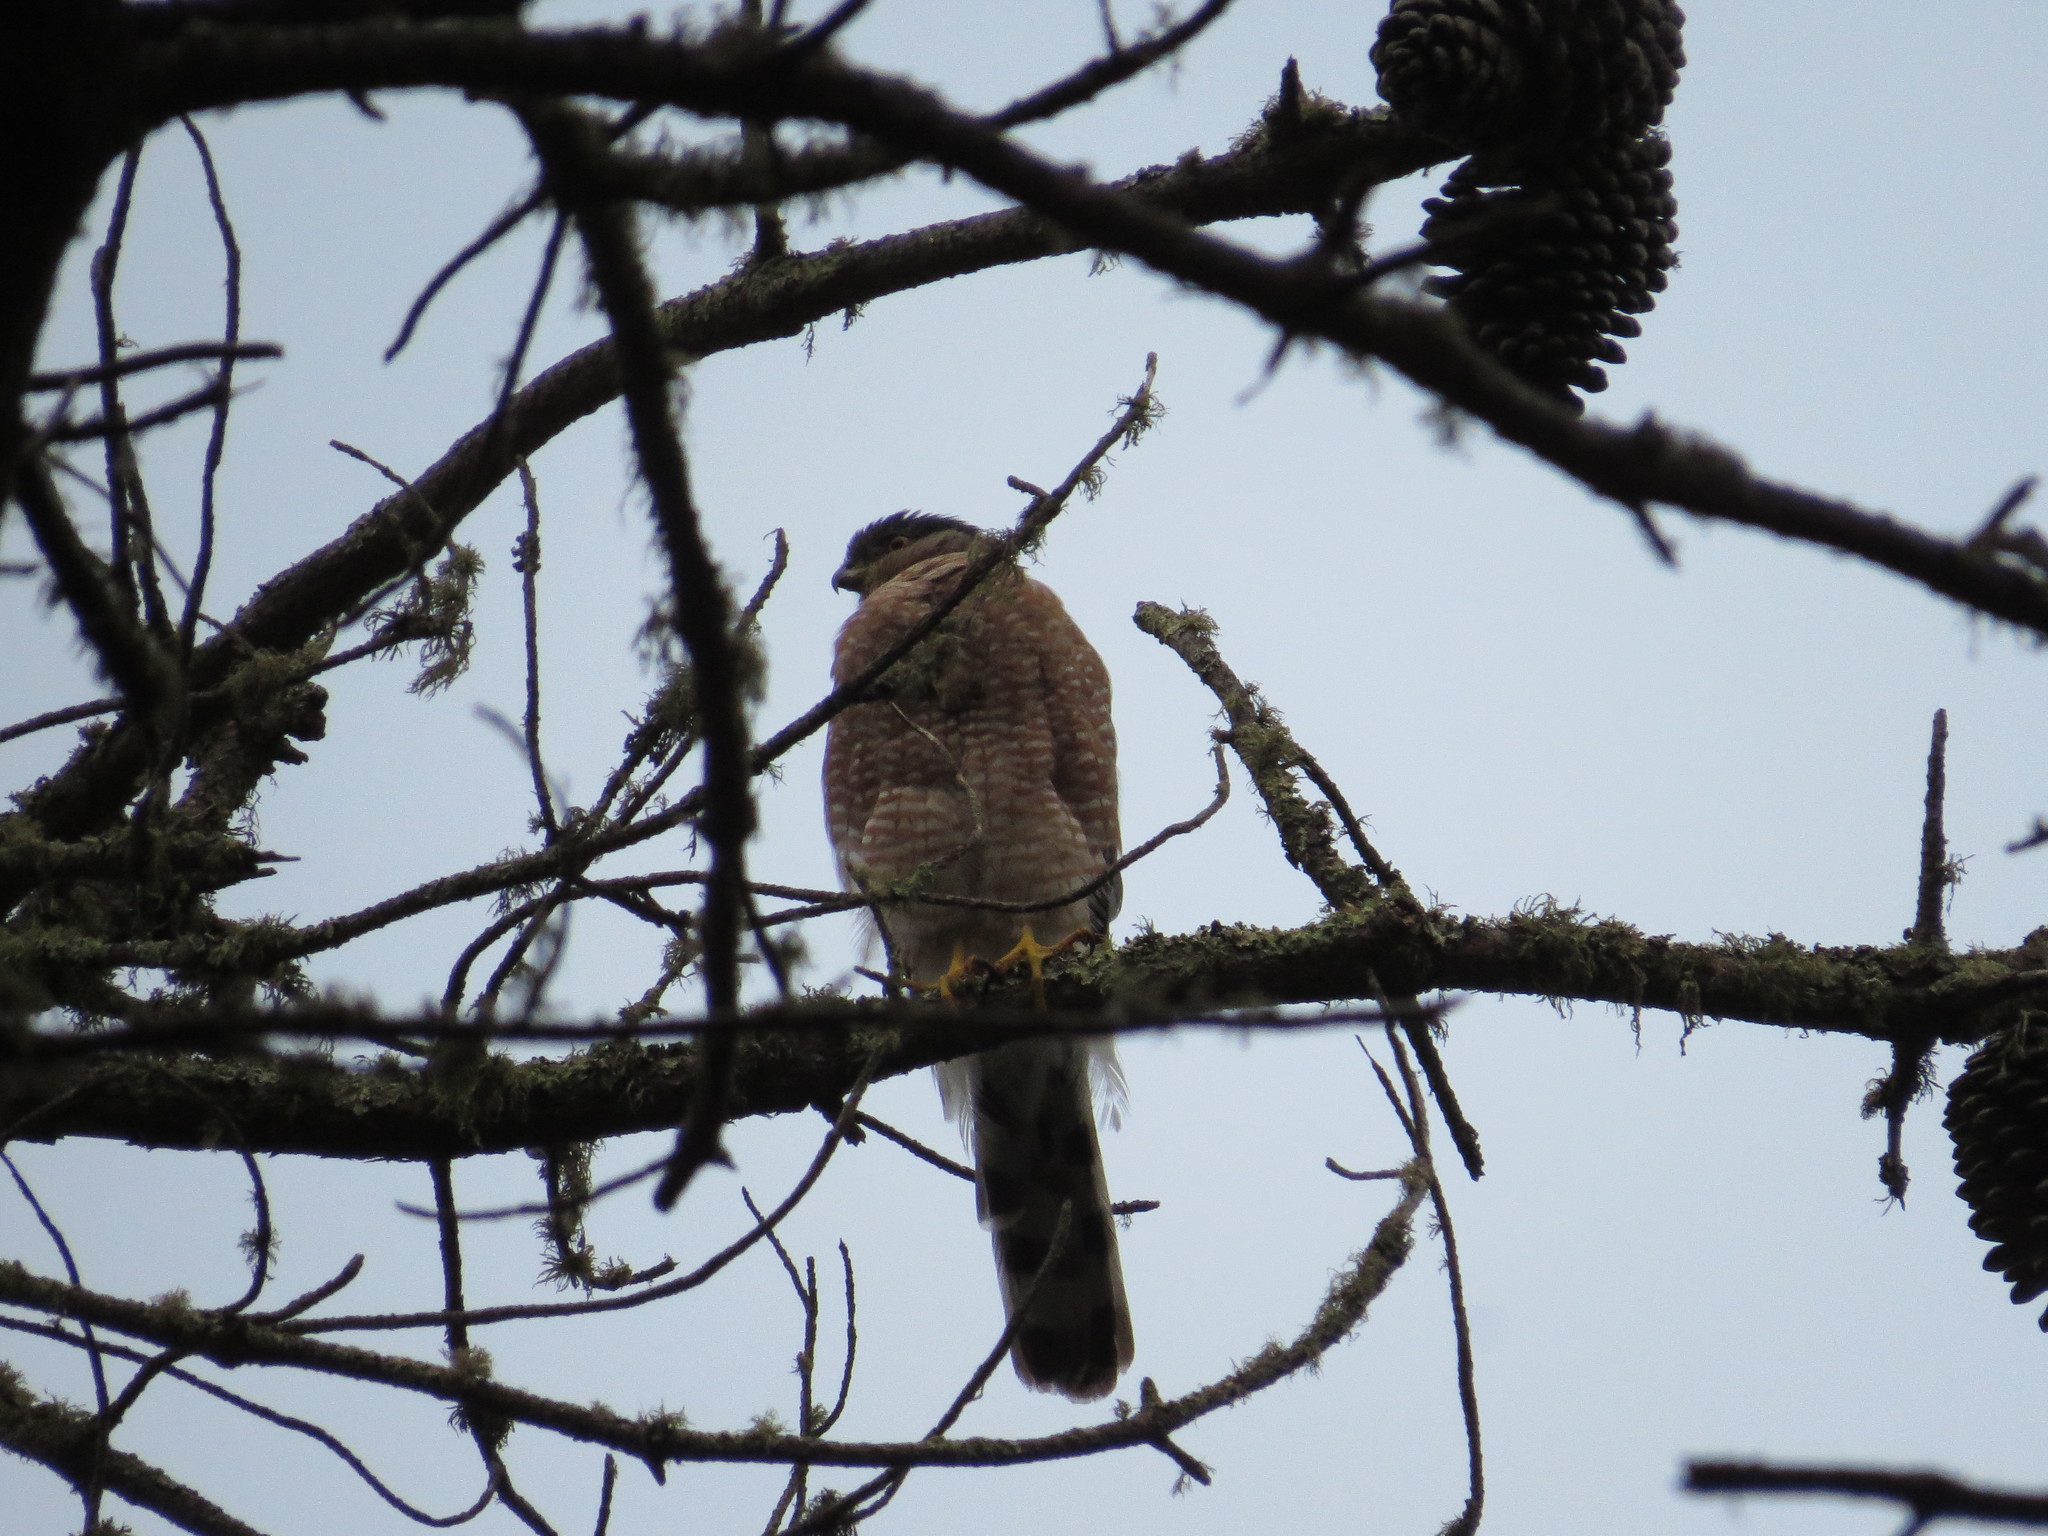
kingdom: Animalia
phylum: Chordata
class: Aves
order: Accipitriformes
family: Accipitridae
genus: Accipiter
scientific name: Accipiter cooperii
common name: Cooper's hawk
